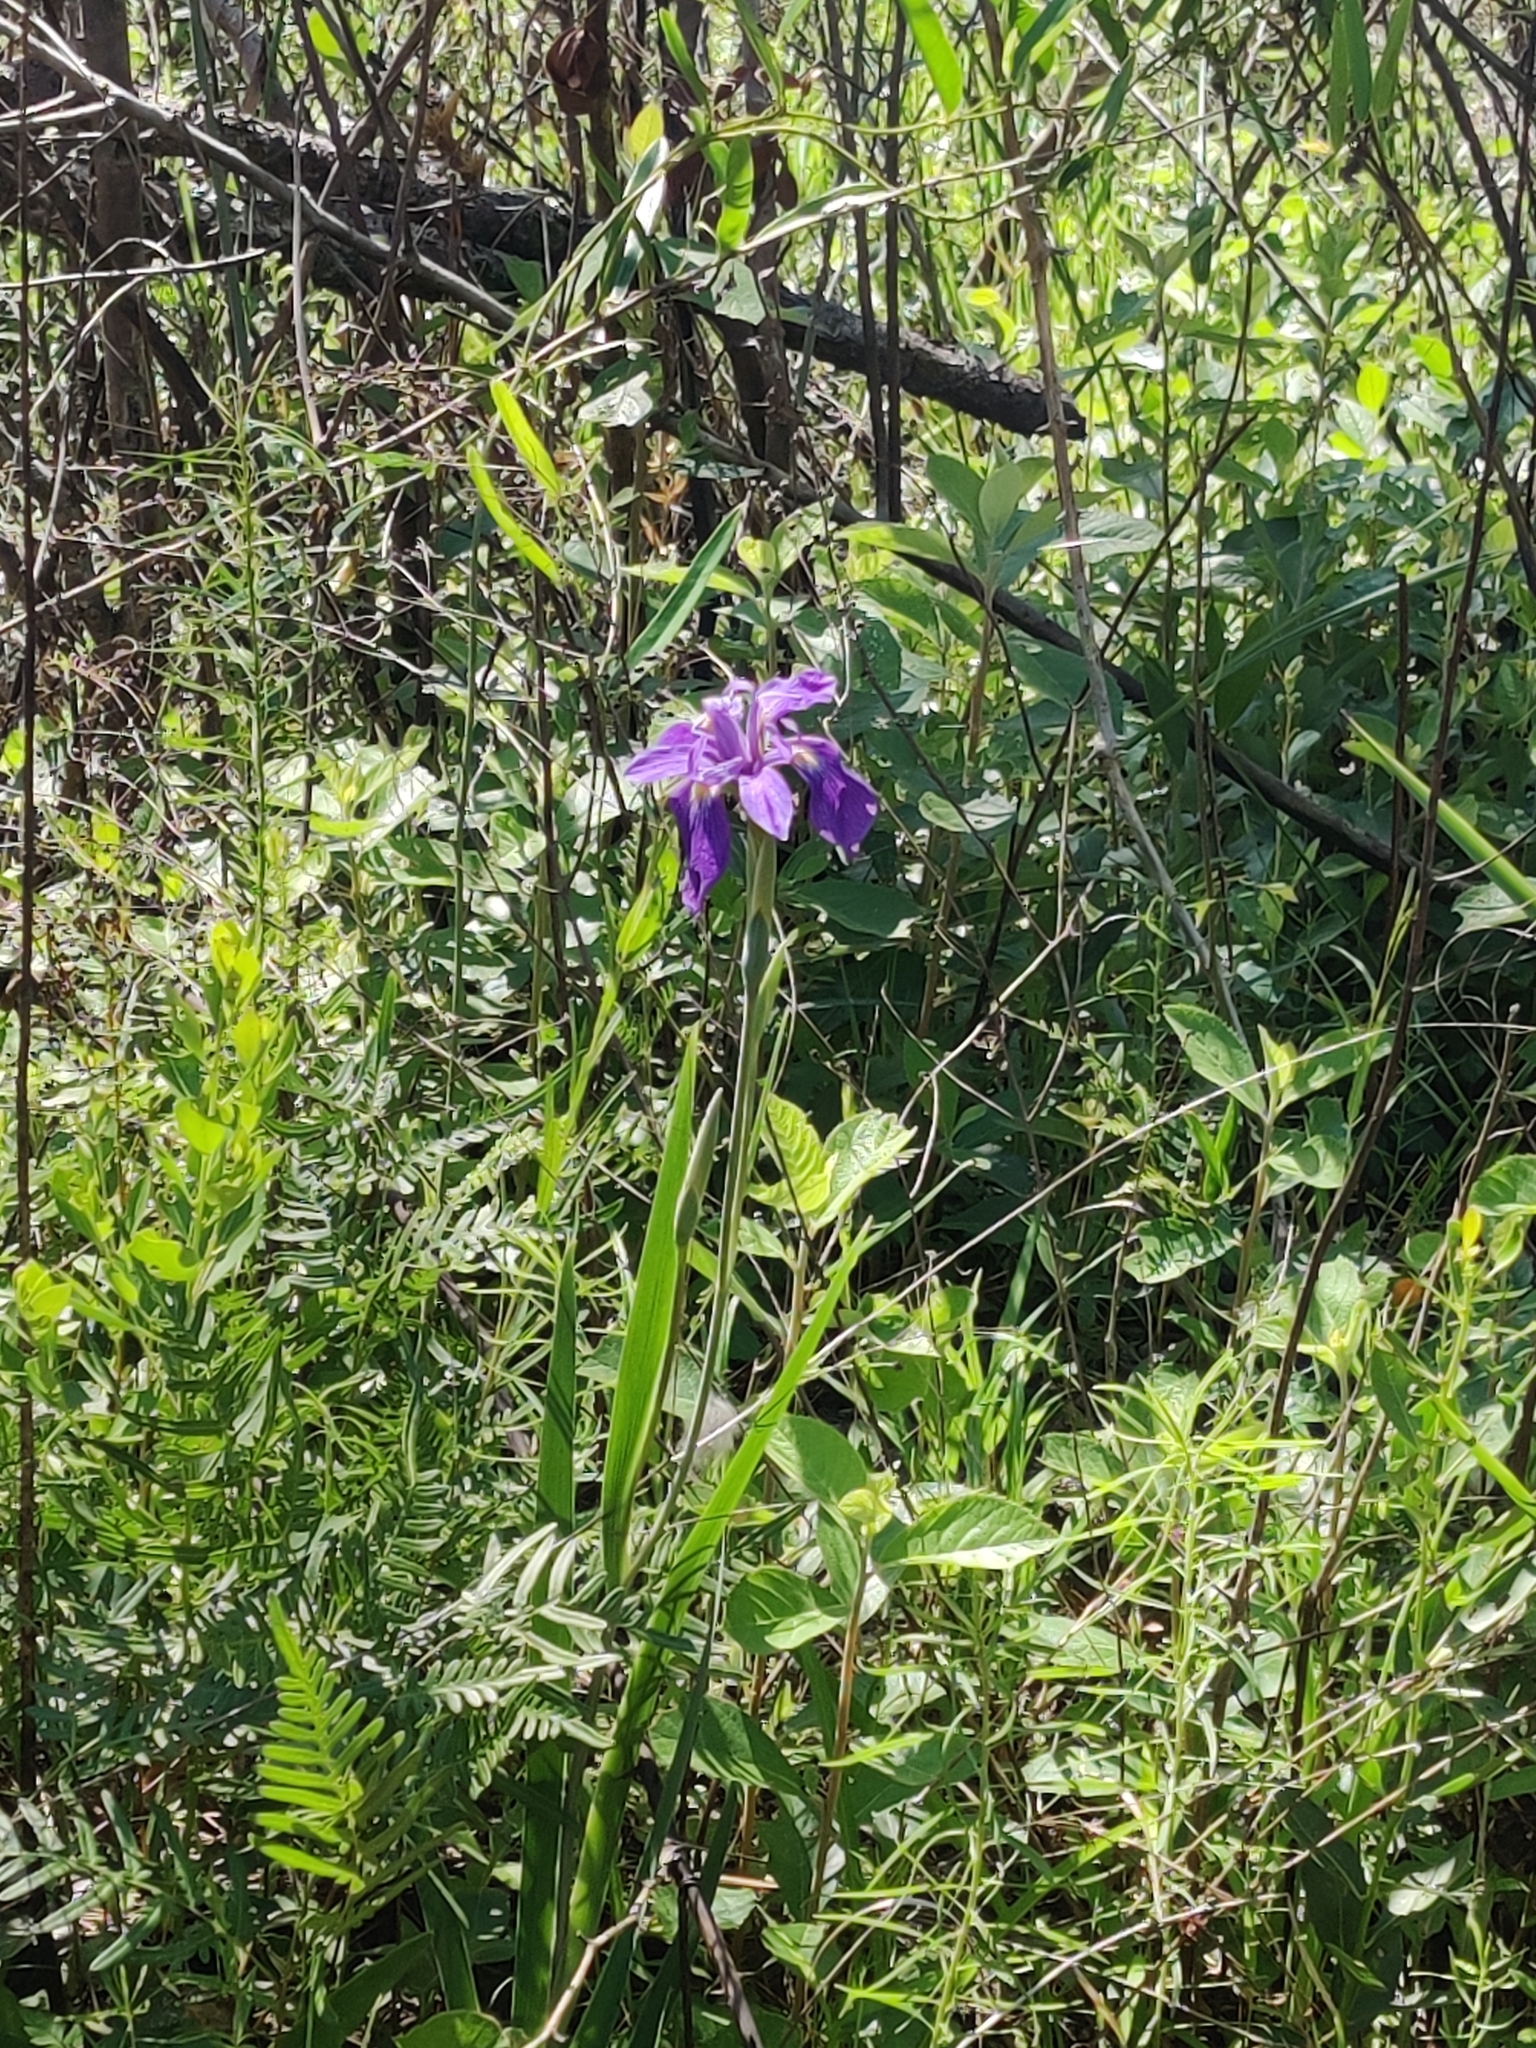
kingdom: Plantae
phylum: Tracheophyta
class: Liliopsida
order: Asparagales
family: Iridaceae
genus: Iris
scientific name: Iris virginica
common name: Southern blue flag
